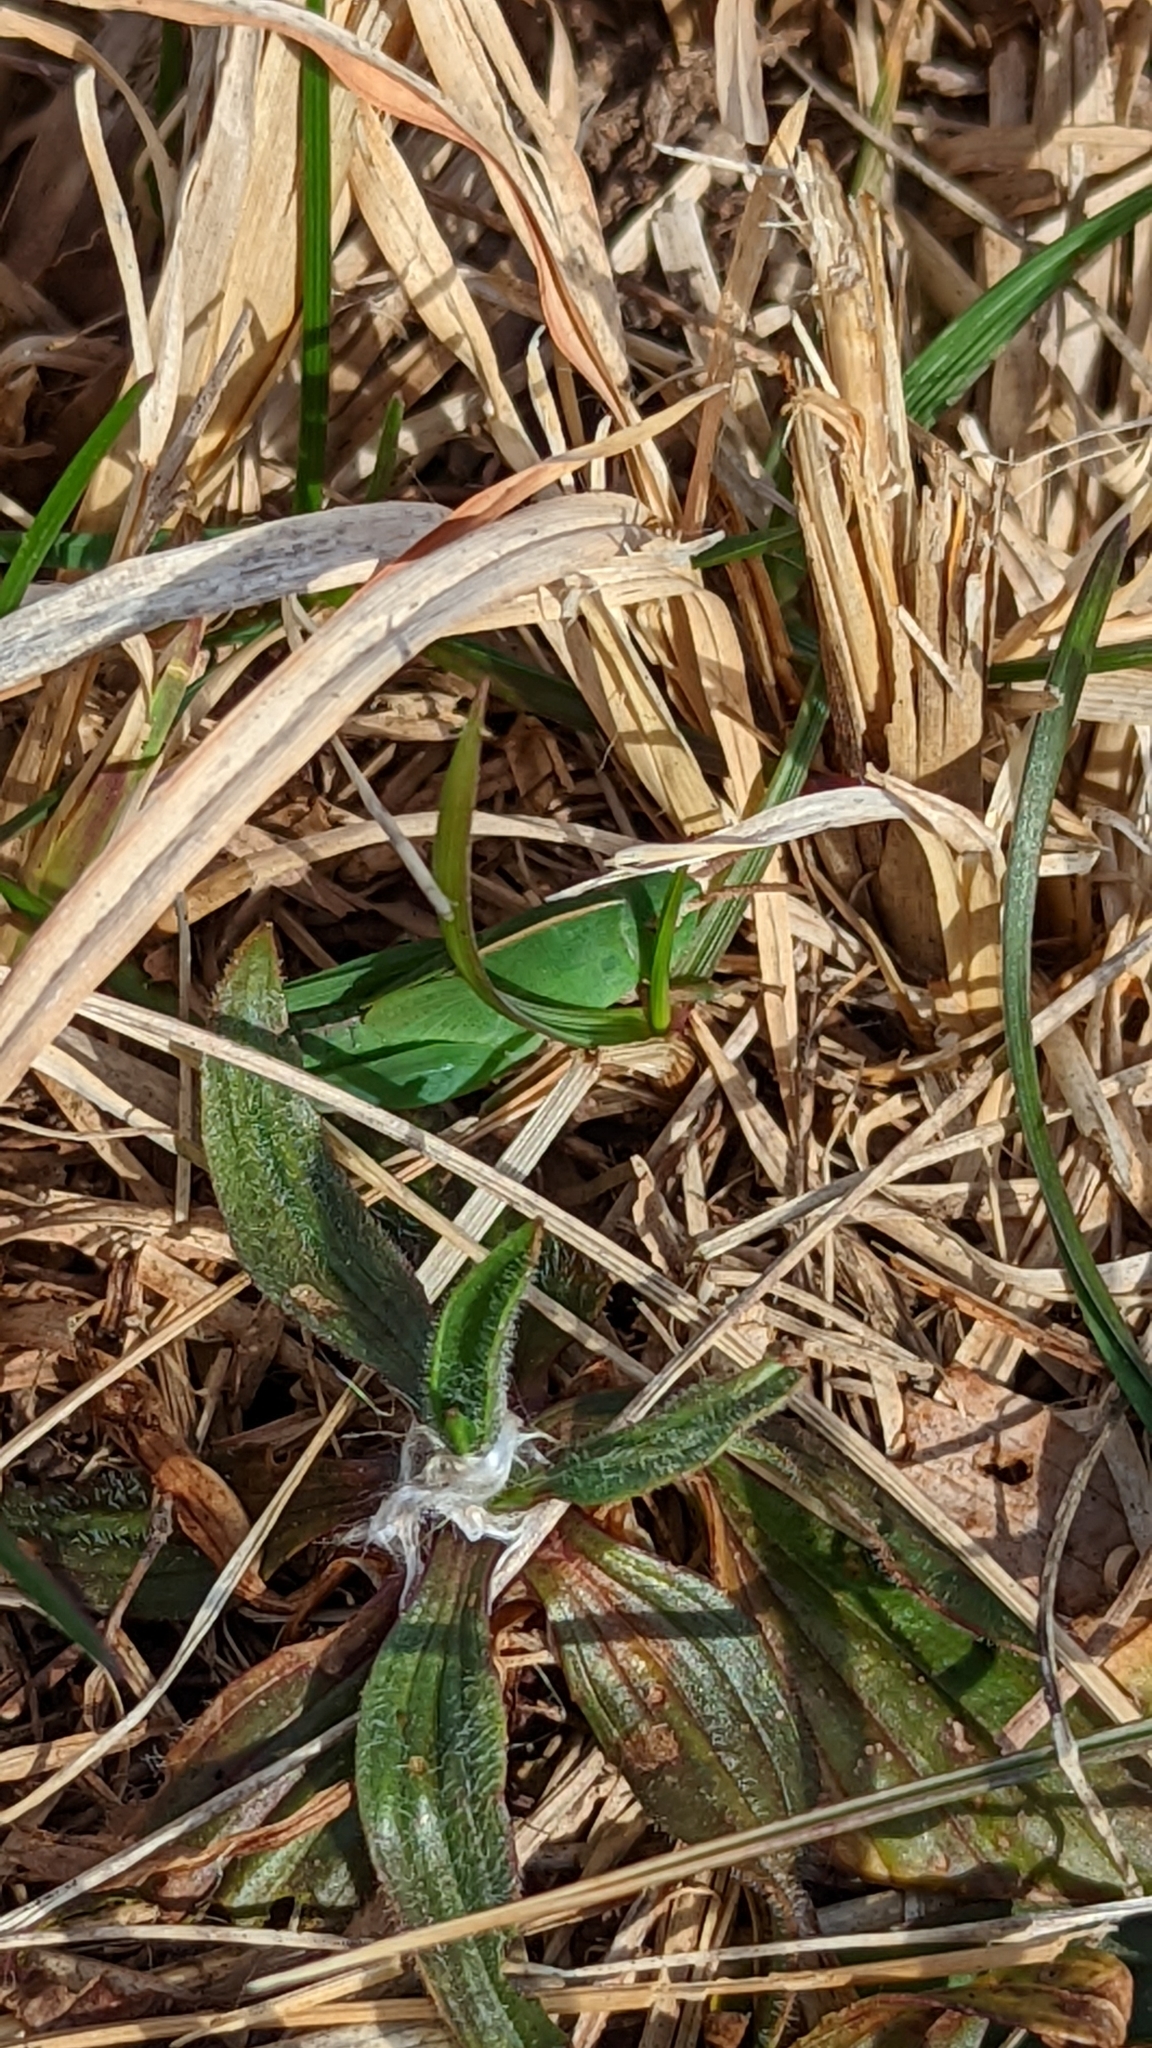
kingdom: Animalia
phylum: Arthropoda
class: Insecta
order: Orthoptera
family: Acrididae
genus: Chortophaga
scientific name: Chortophaga viridifasciata
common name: Green-striped grasshopper
